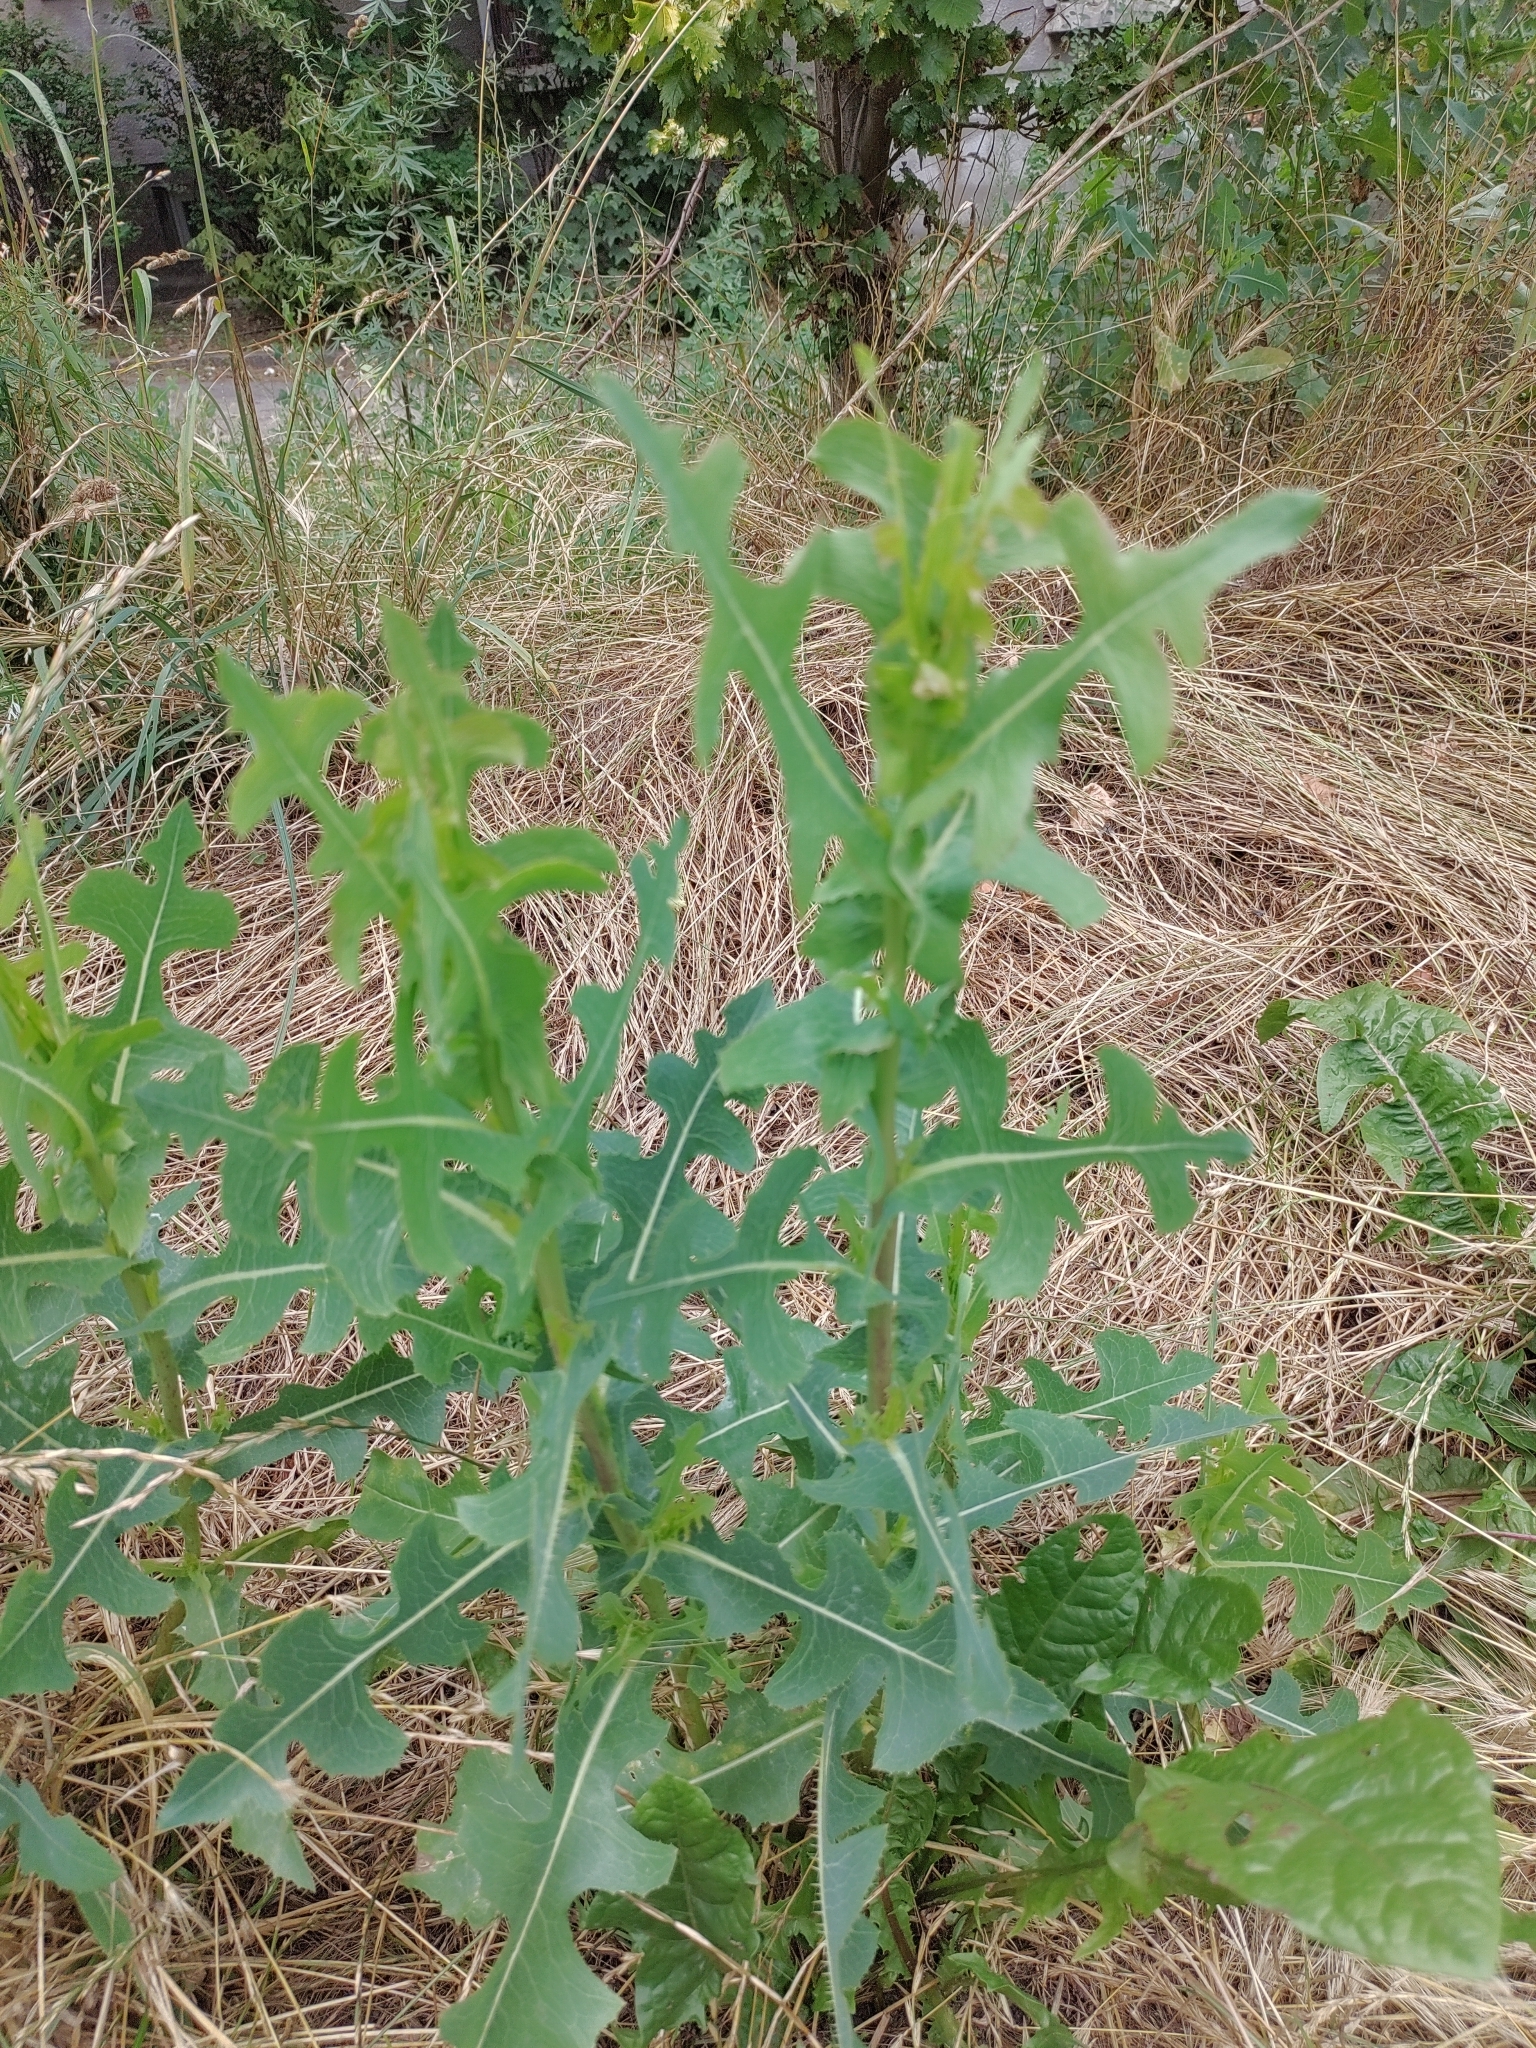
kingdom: Plantae
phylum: Tracheophyta
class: Magnoliopsida
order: Asterales
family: Asteraceae
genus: Lactuca
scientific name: Lactuca serriola
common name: Prickly lettuce
